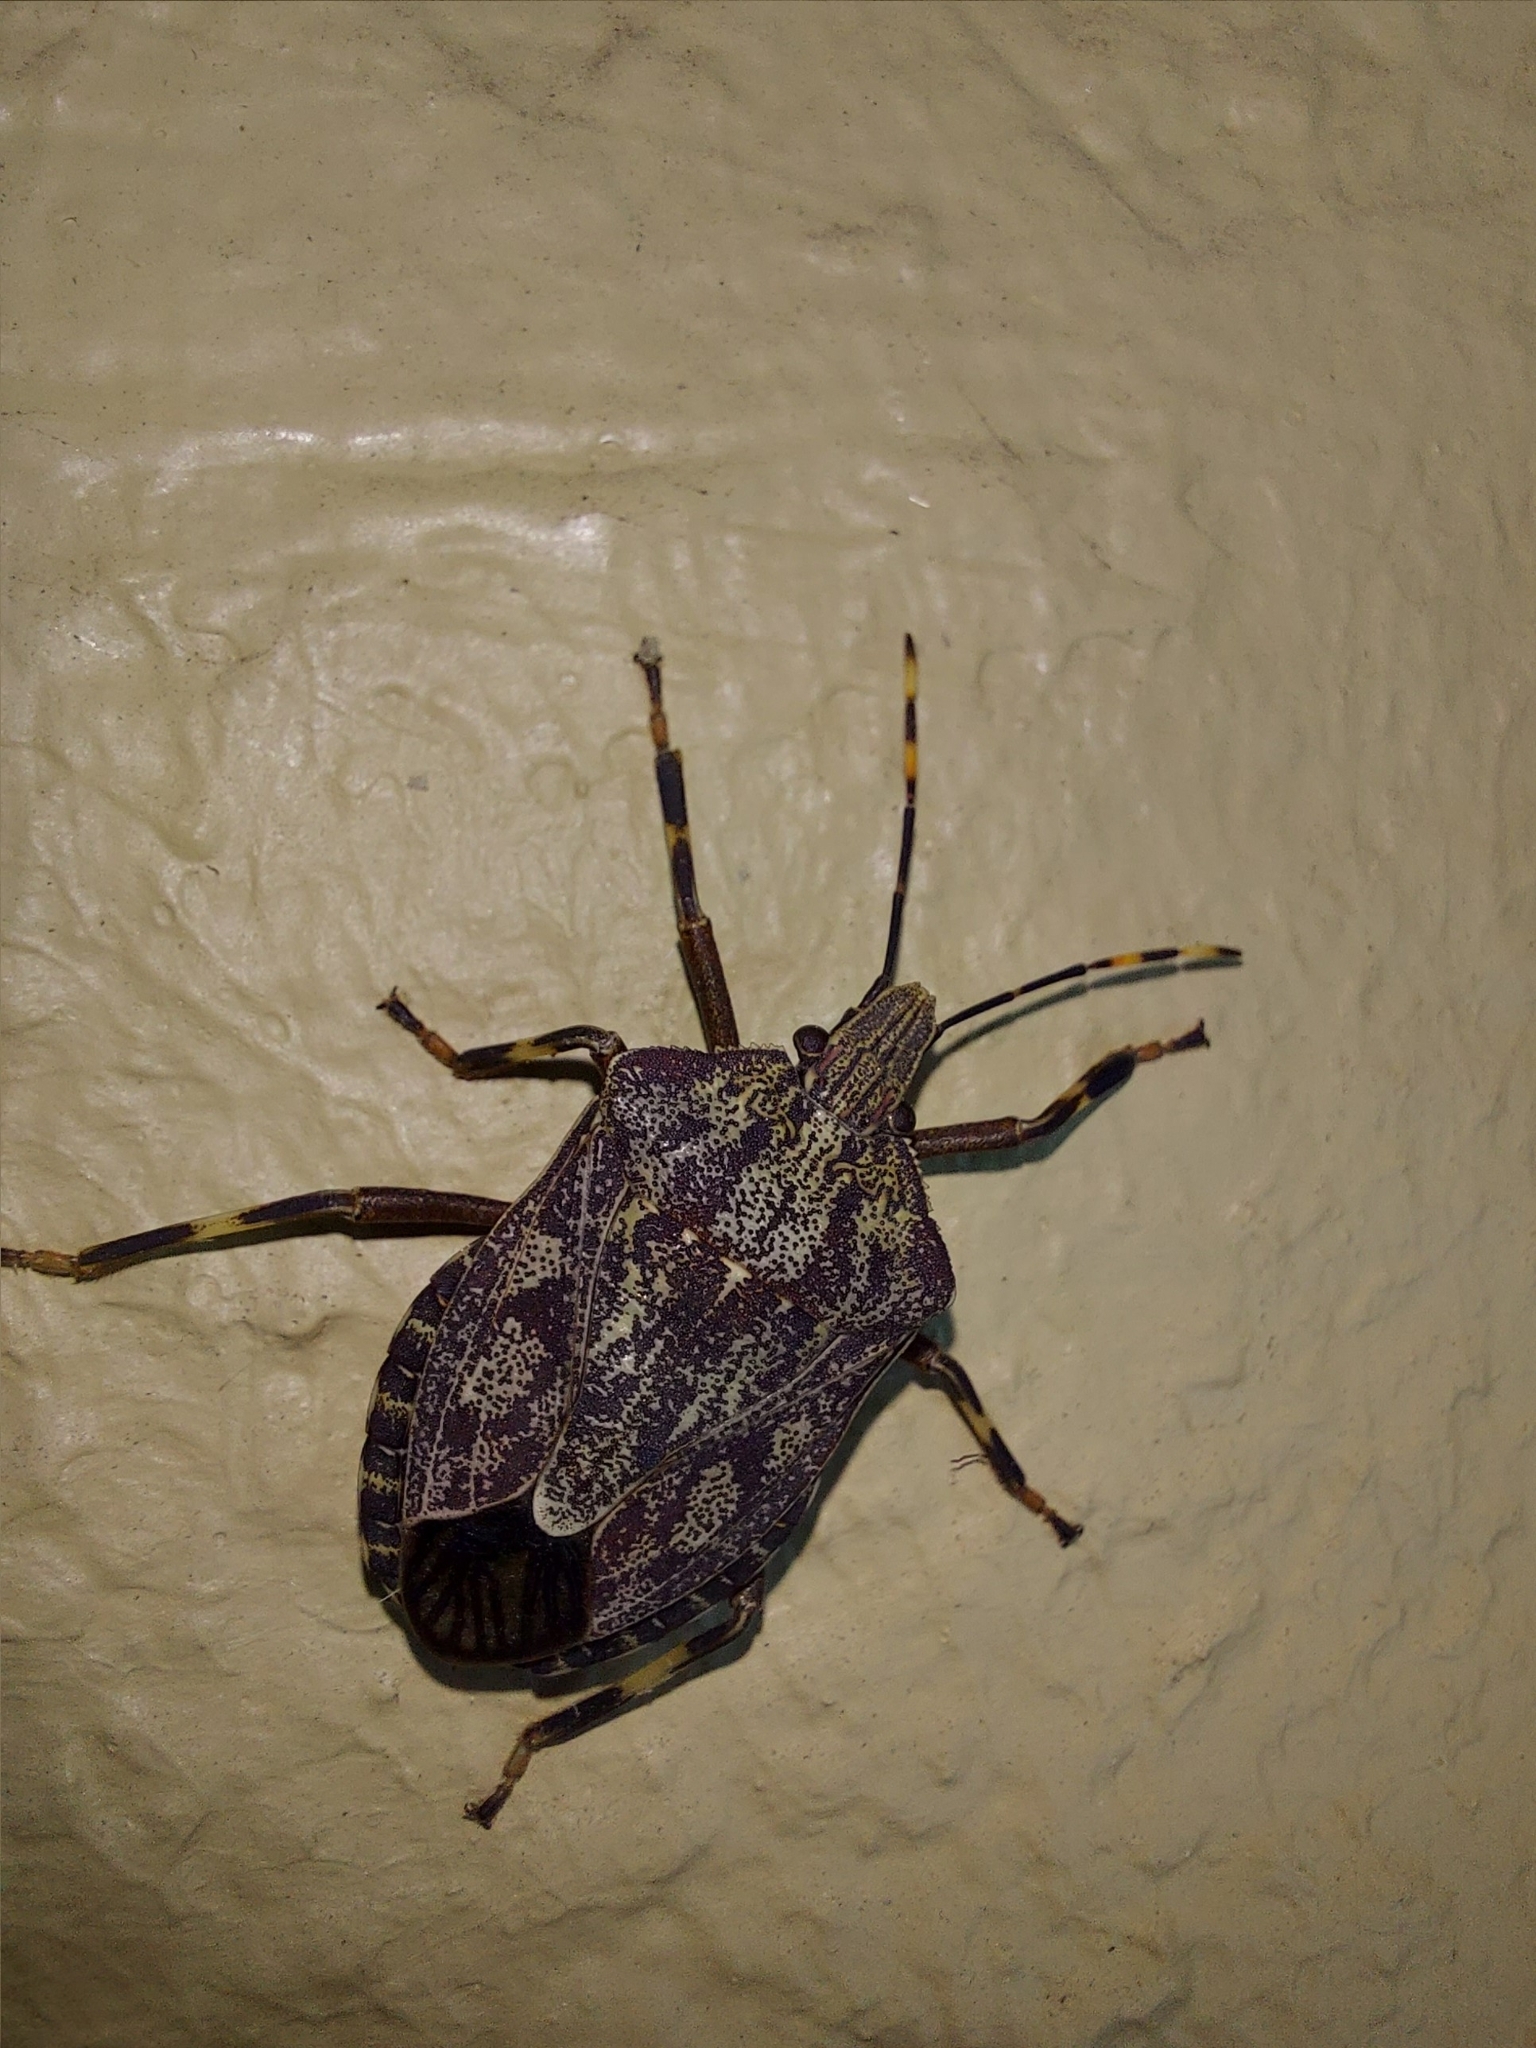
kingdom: Animalia
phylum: Arthropoda
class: Insecta
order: Hemiptera
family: Pentatomidae
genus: Coenomorpha
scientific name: Coenomorpha nervosa
